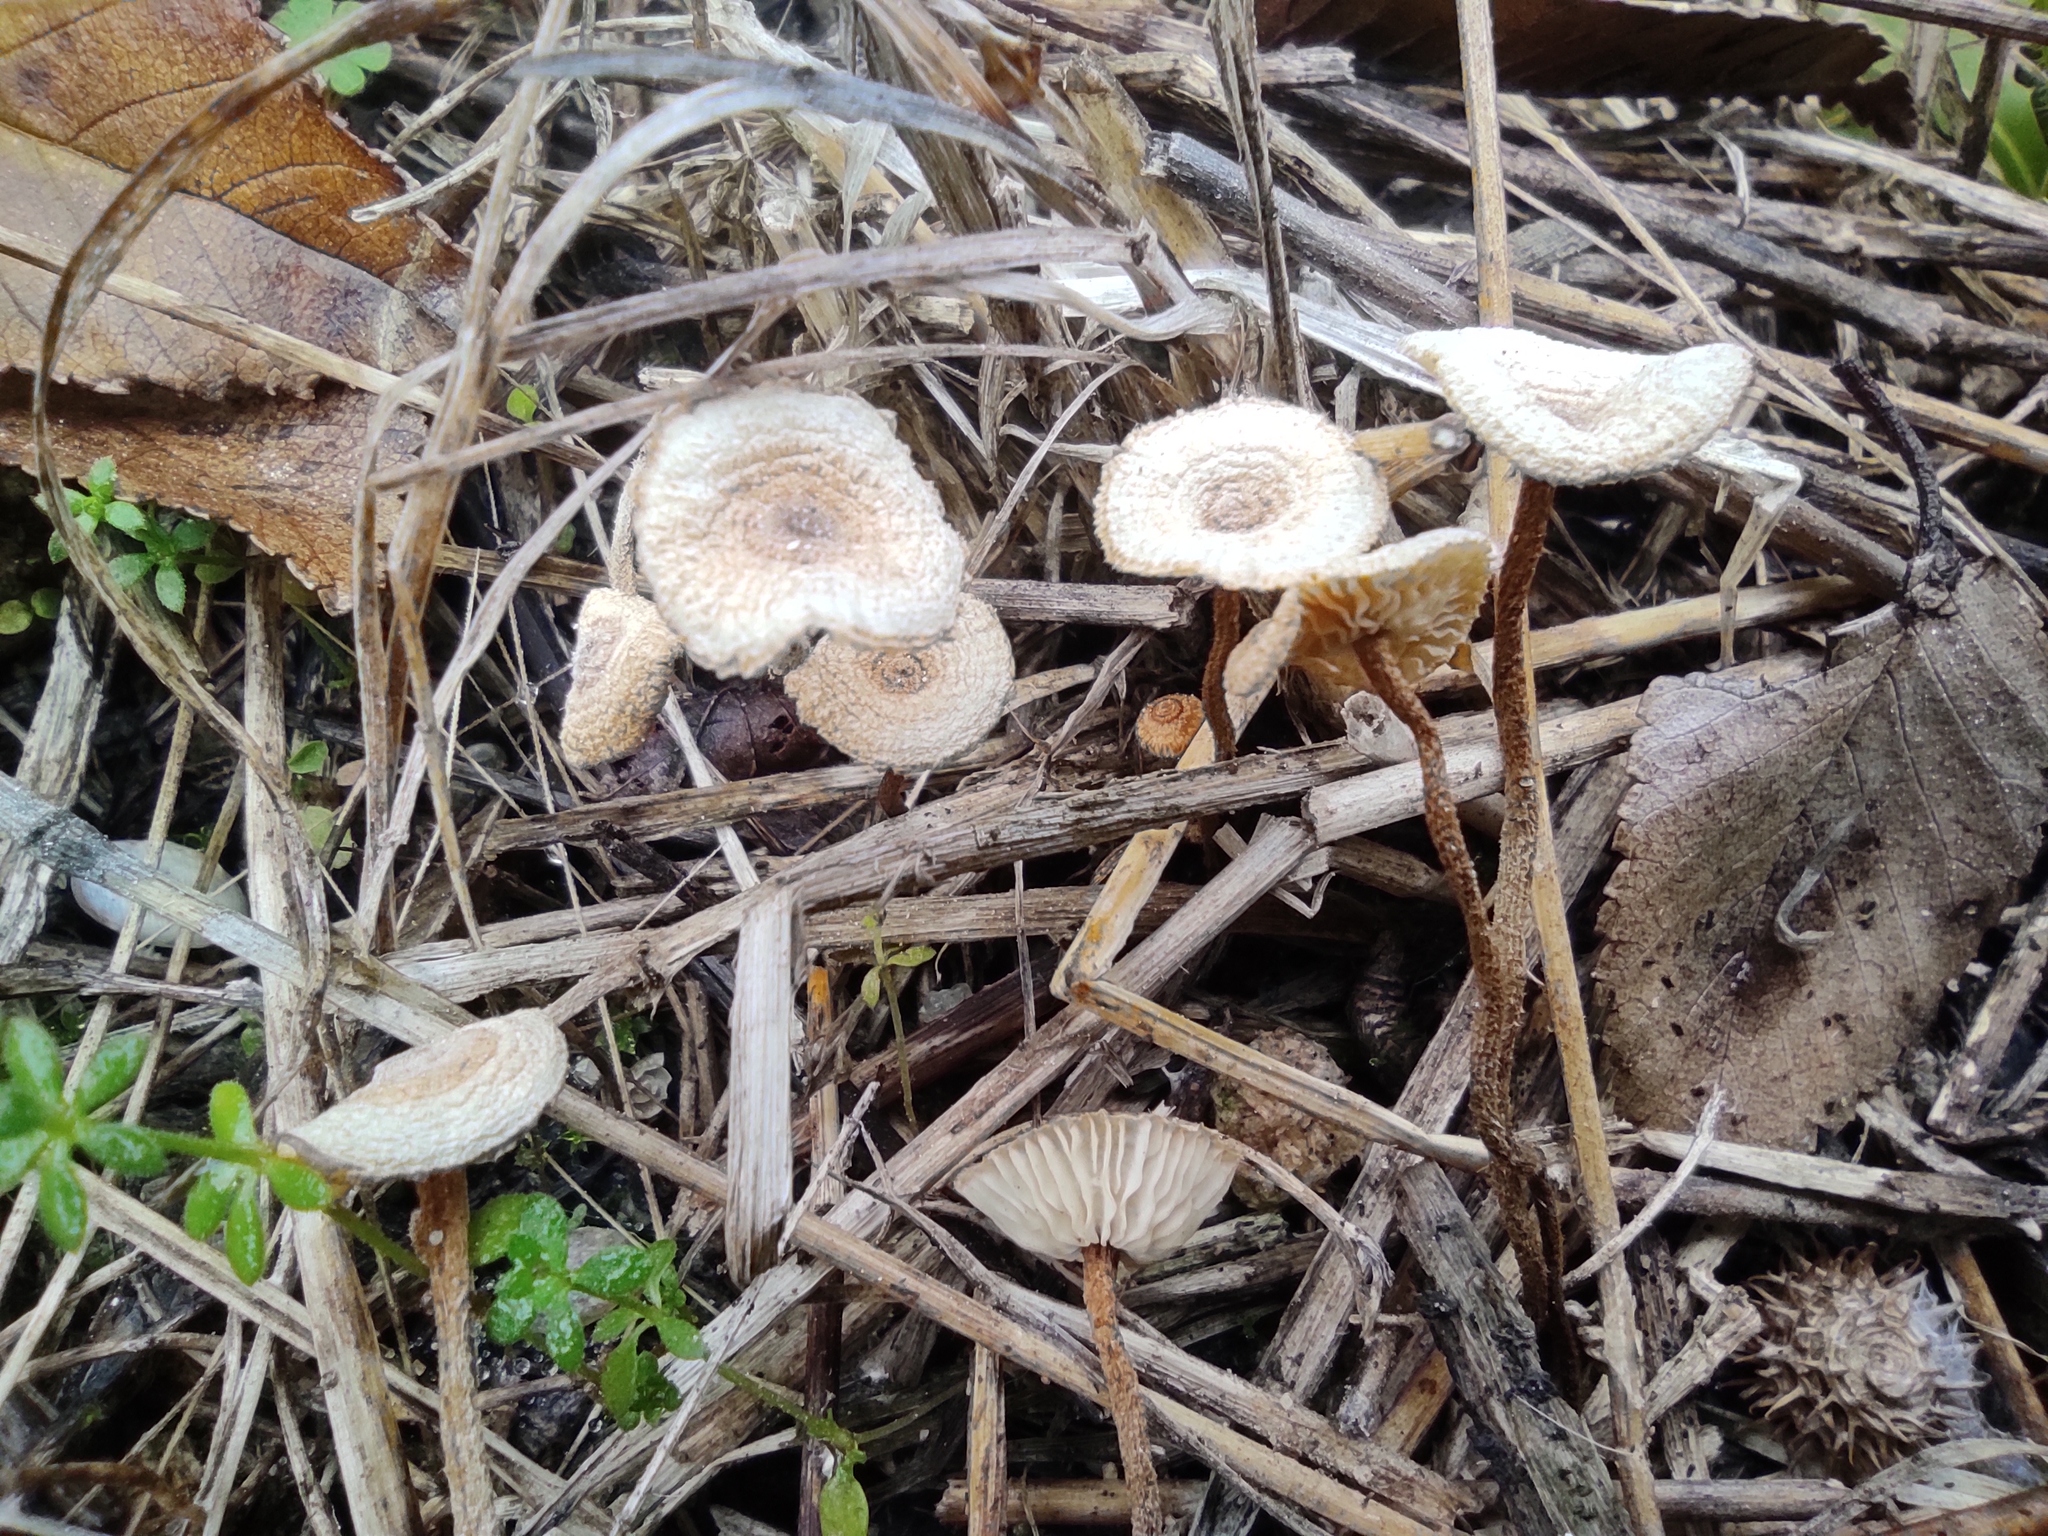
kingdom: Fungi
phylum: Basidiomycota
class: Agaricomycetes
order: Agaricales
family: Marasmiaceae
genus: Crinipellis
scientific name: Crinipellis scabella
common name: Hairy parachute
